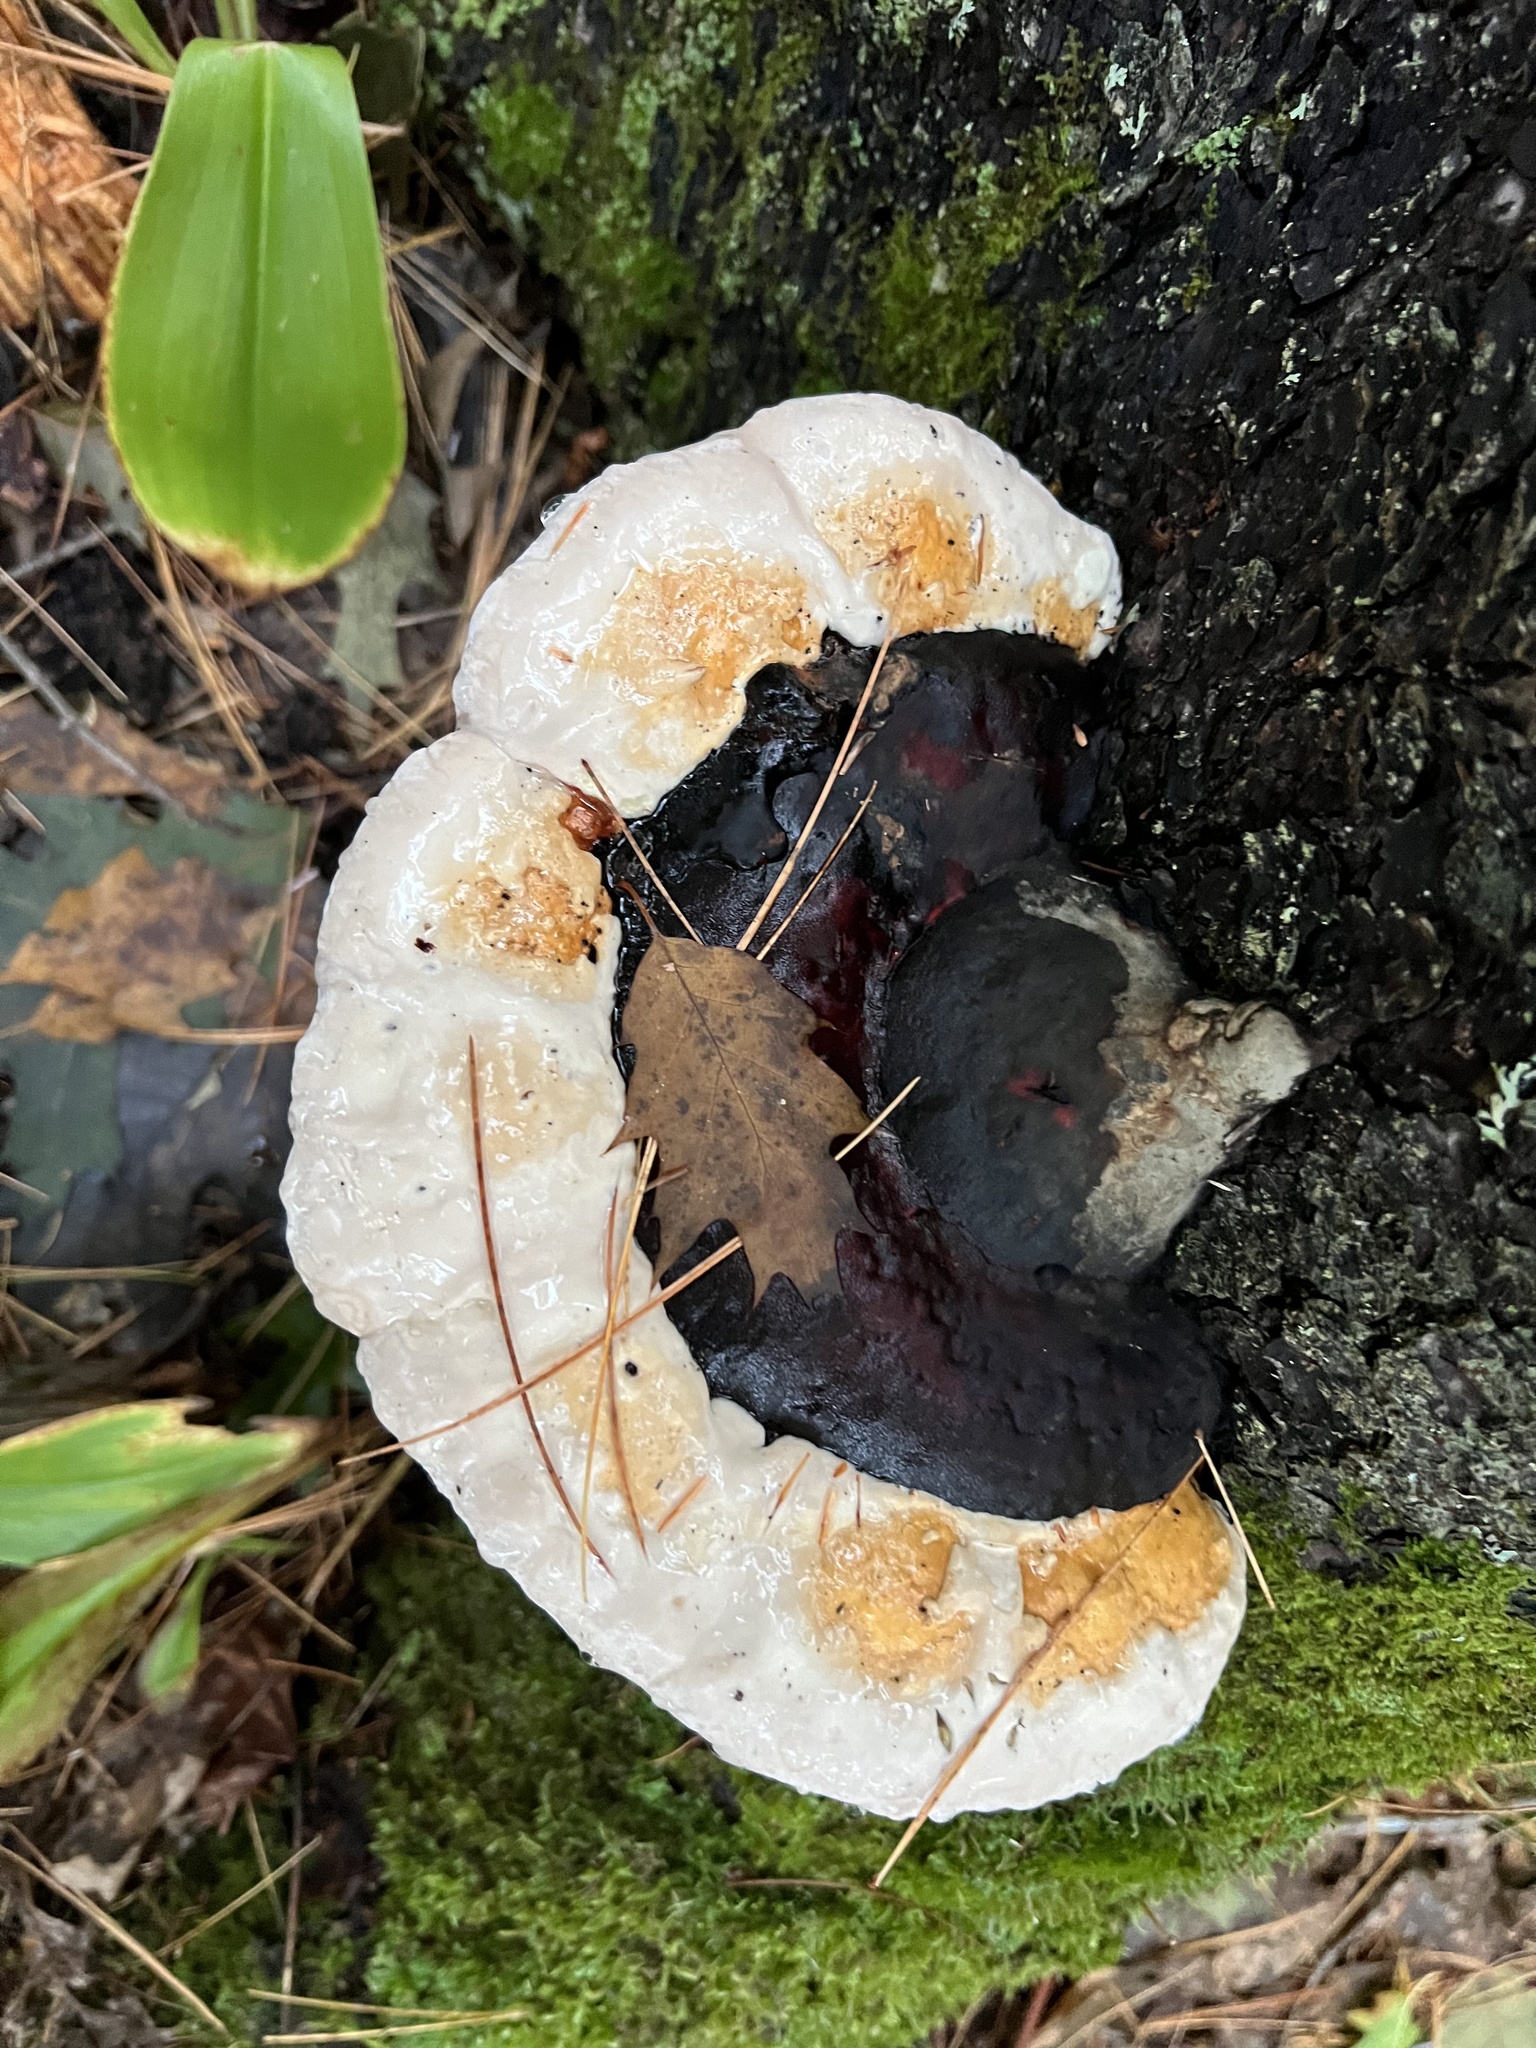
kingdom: Fungi
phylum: Basidiomycota
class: Agaricomycetes
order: Polyporales
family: Fomitopsidaceae
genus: Fomitopsis
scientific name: Fomitopsis mounceae
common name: Northern red belt
